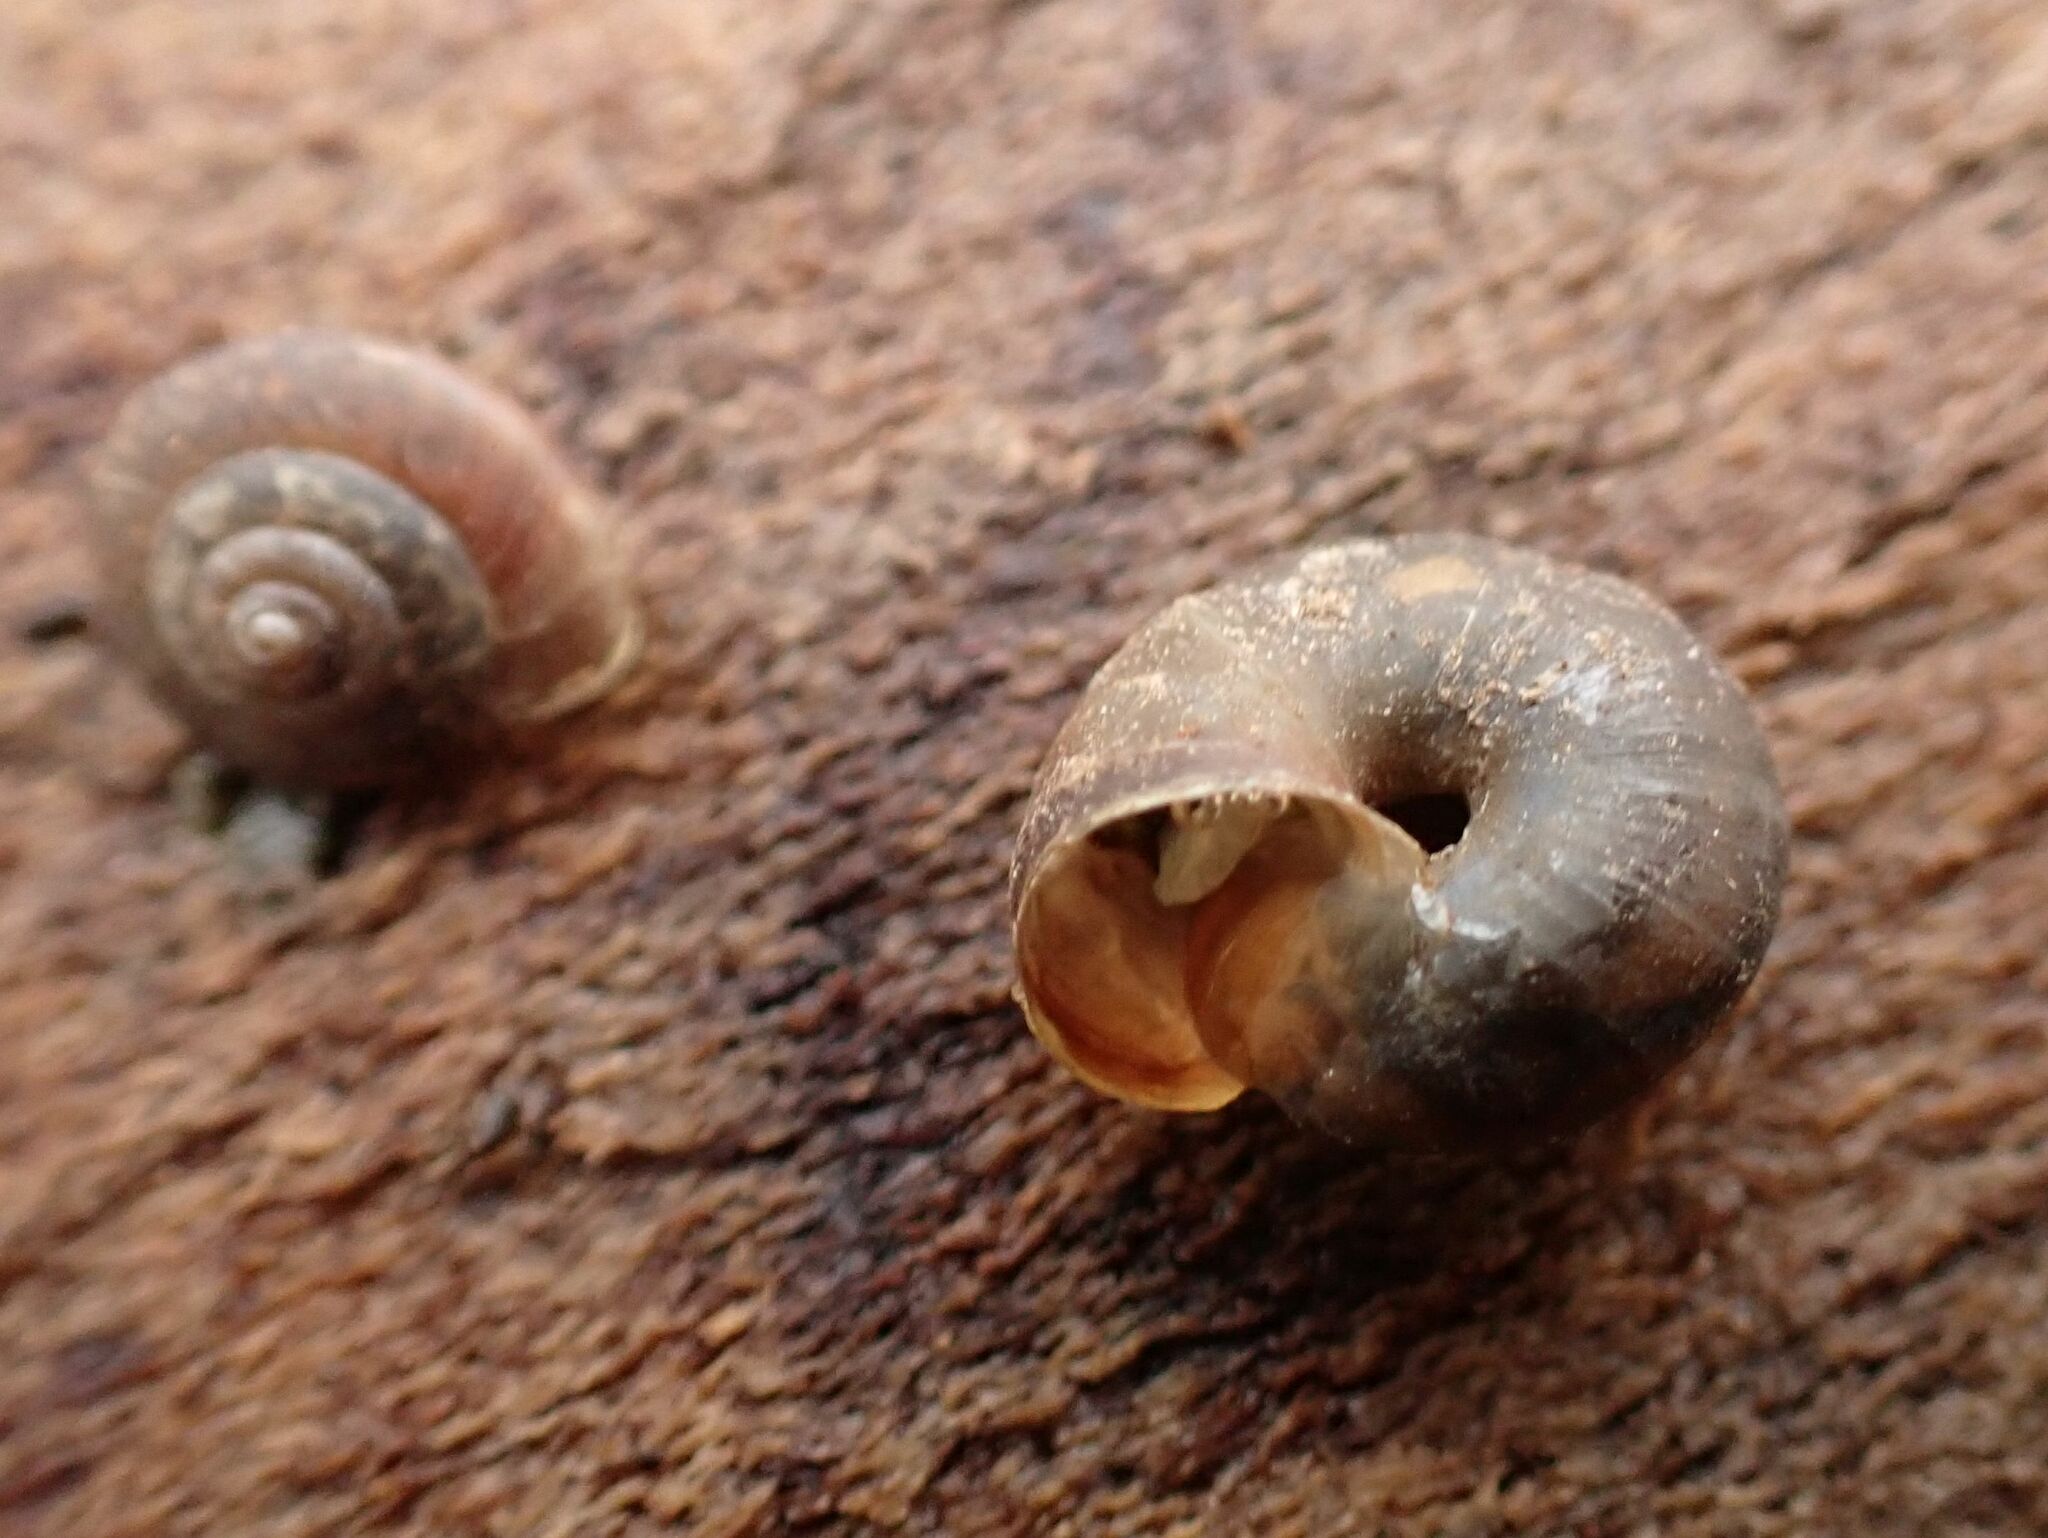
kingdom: Animalia
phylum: Mollusca
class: Gastropoda
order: Stylommatophora
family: Hygromiidae
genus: Trochulus
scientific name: Trochulus striolatus
